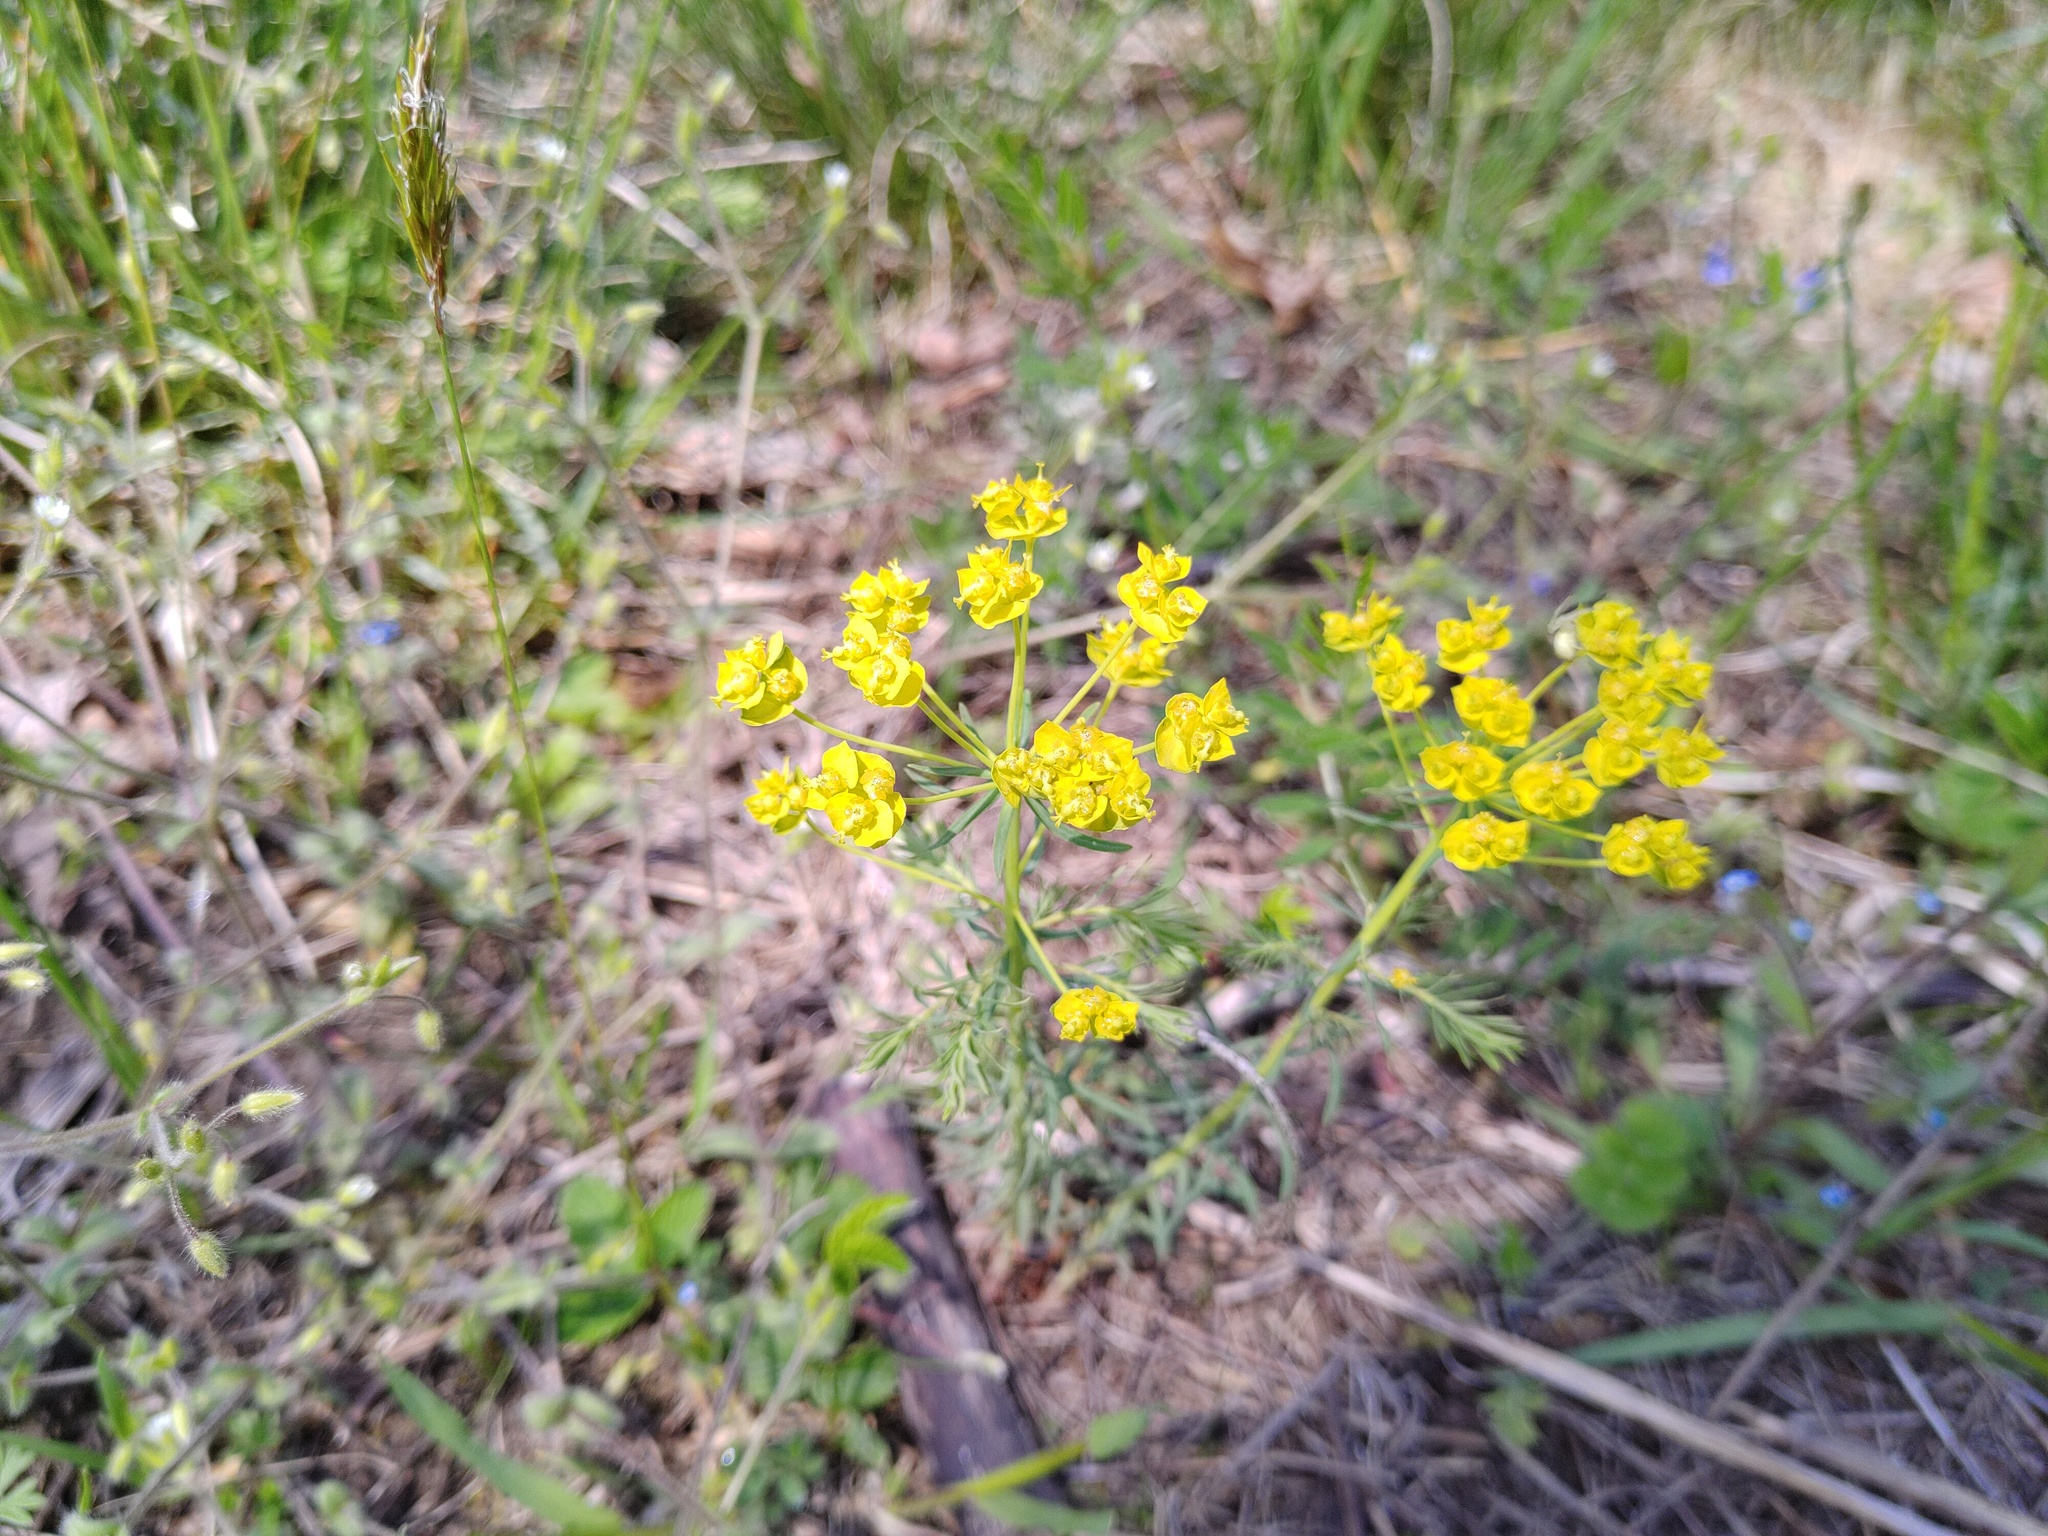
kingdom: Plantae
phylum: Tracheophyta
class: Magnoliopsida
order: Malpighiales
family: Euphorbiaceae
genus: Euphorbia
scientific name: Euphorbia cyparissias
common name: Cypress spurge
